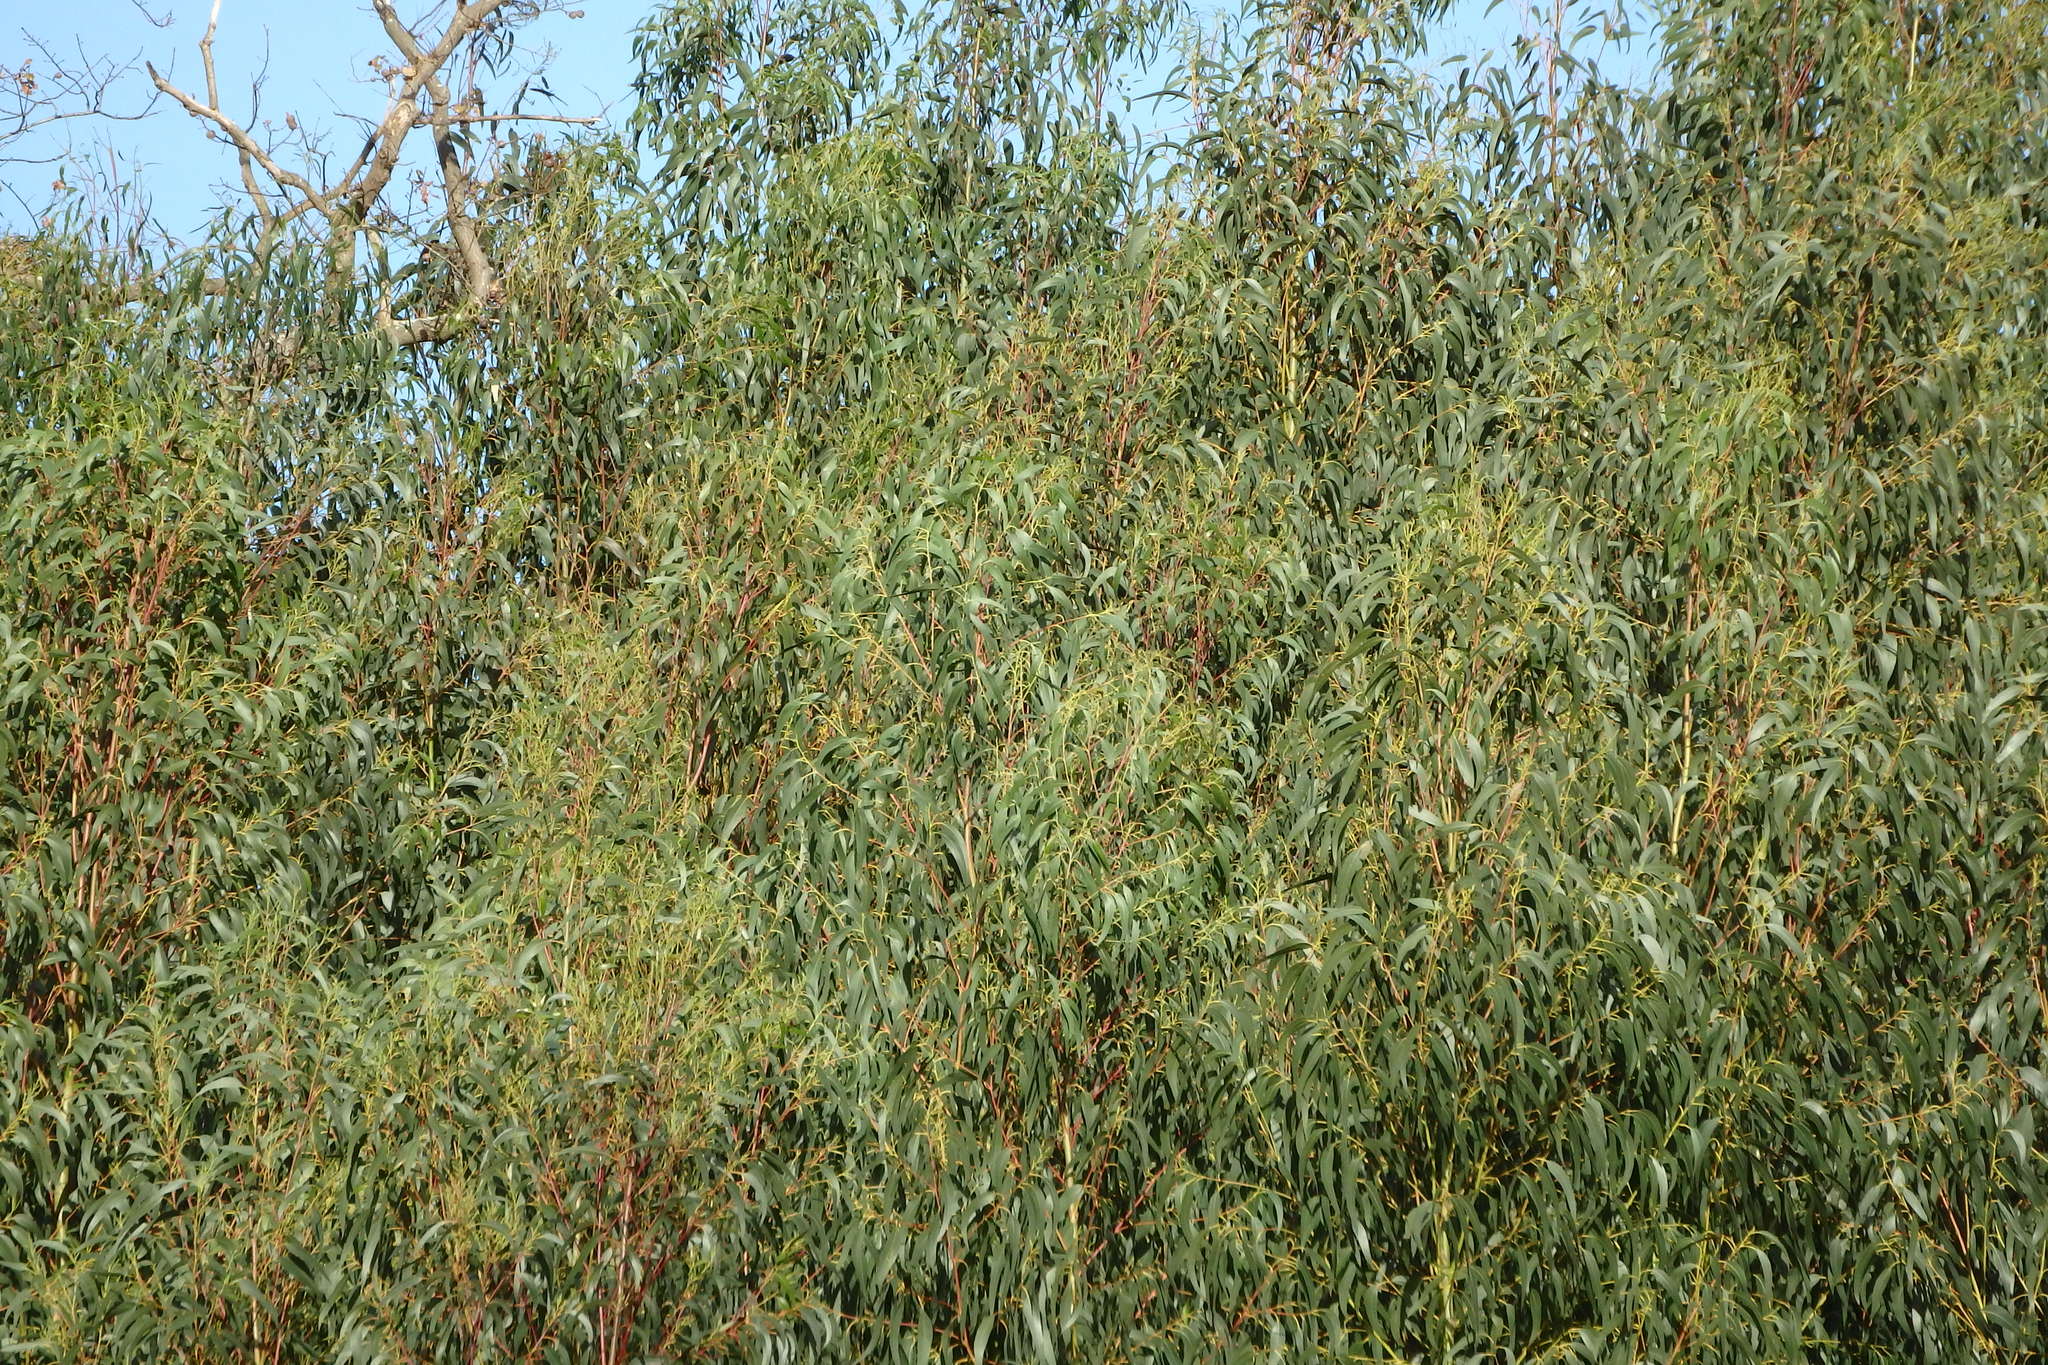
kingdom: Plantae
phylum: Tracheophyta
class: Magnoliopsida
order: Myrtales
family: Myrtaceae
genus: Eucalyptus
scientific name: Eucalyptus globulus
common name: Southern blue-gum
